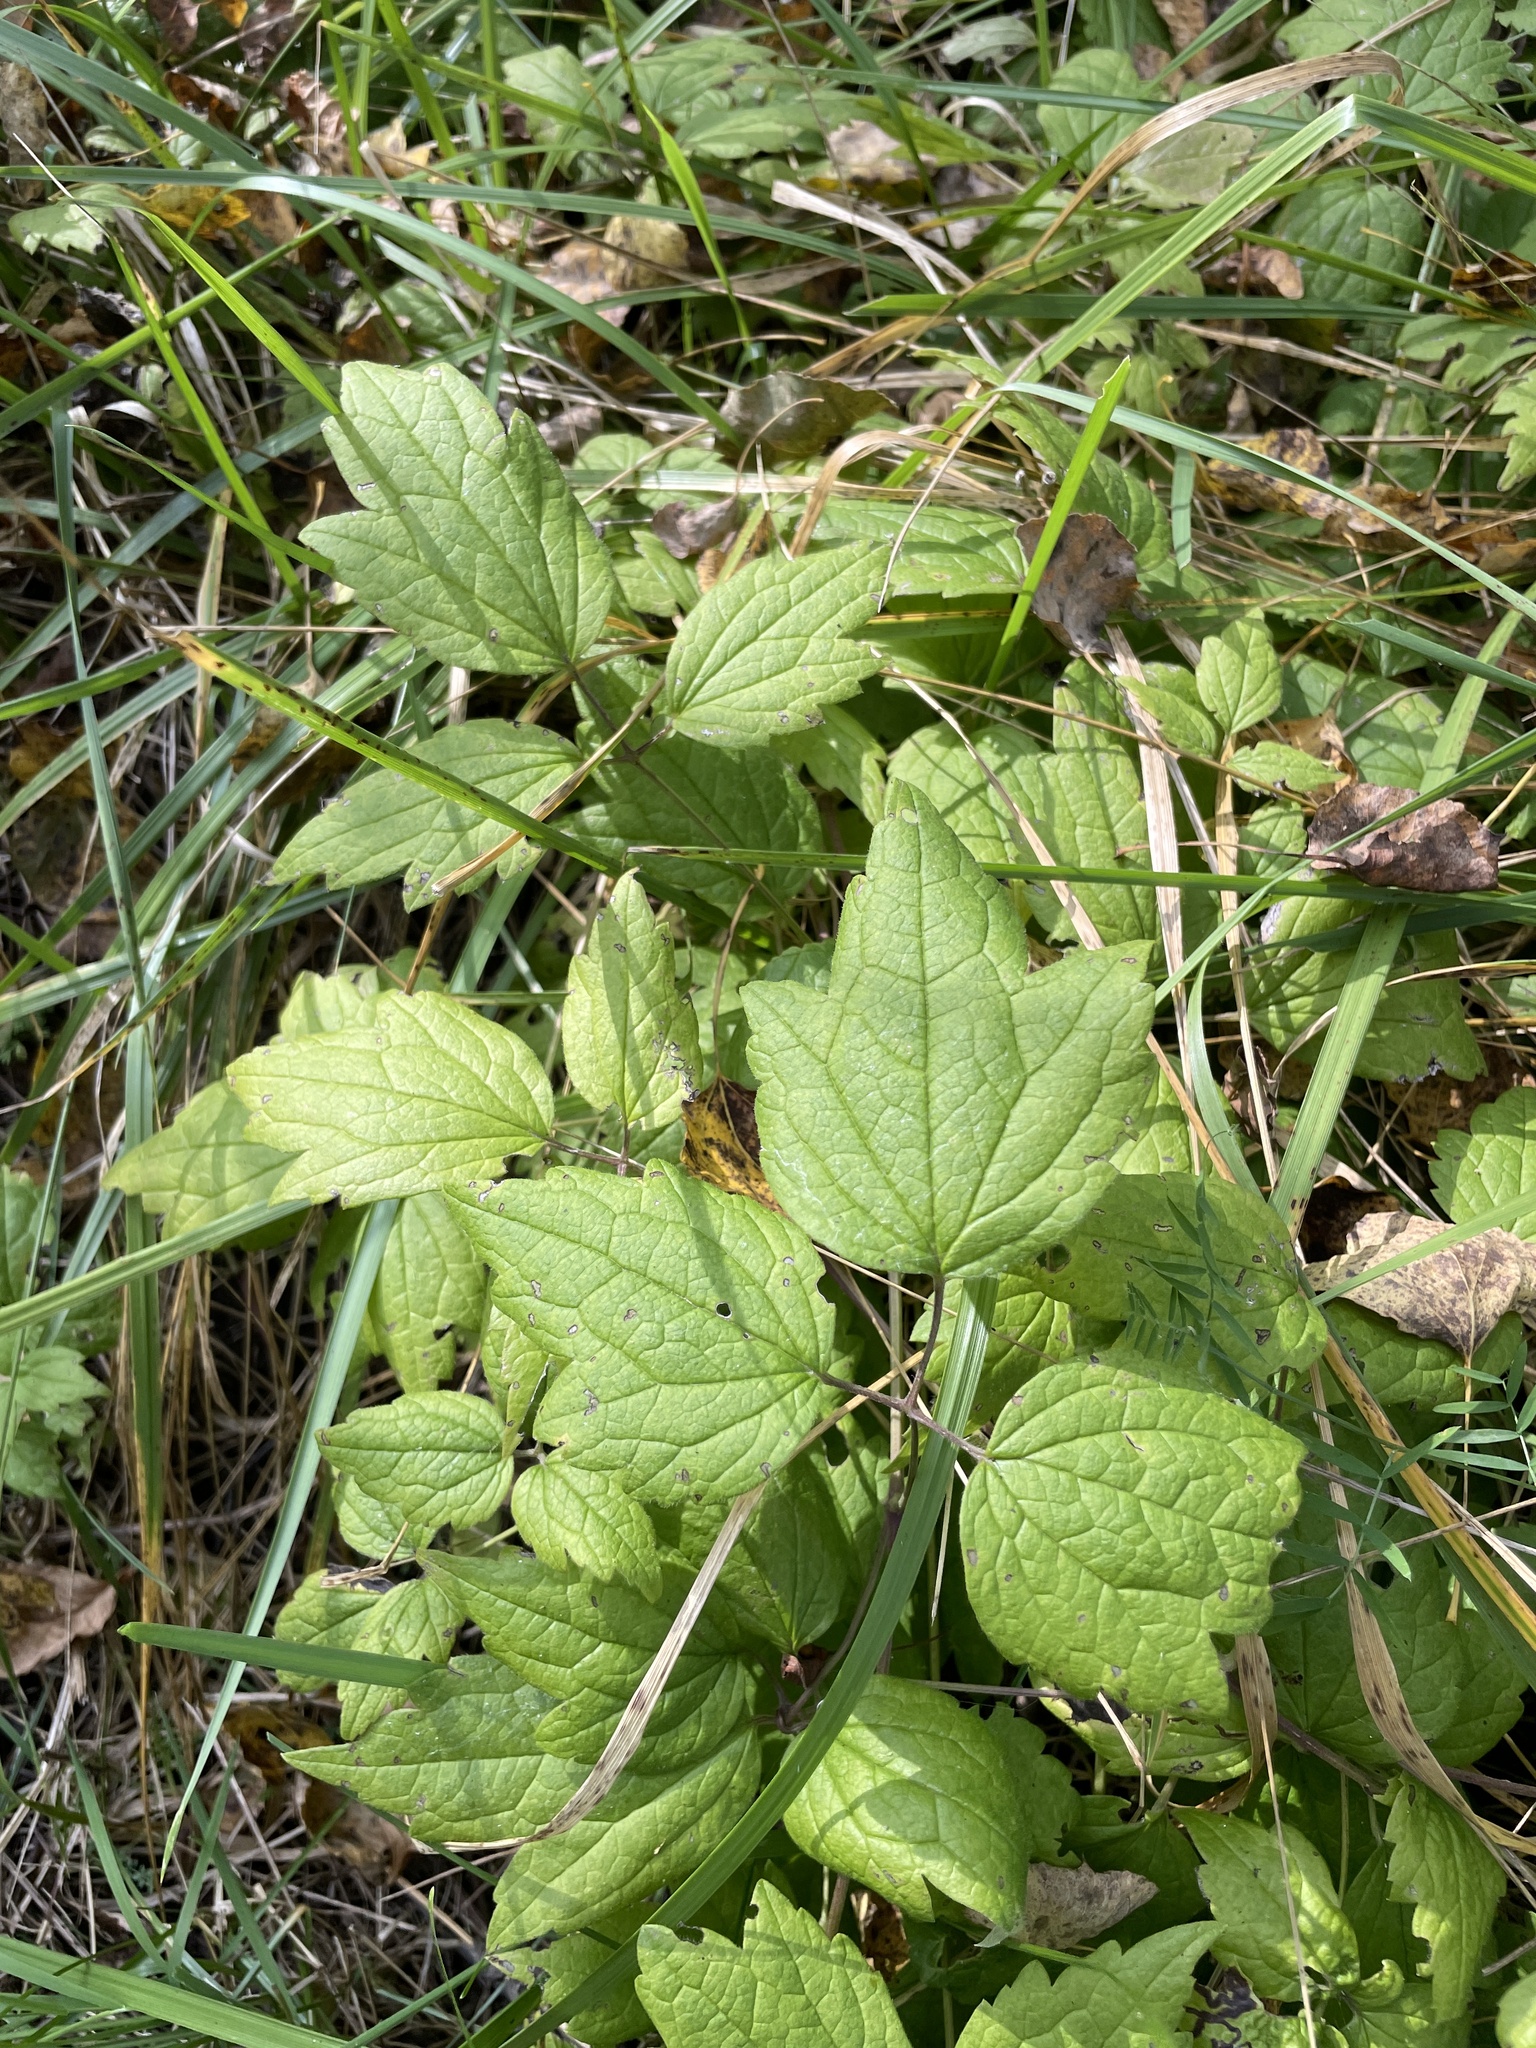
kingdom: Plantae
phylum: Tracheophyta
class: Magnoliopsida
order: Ranunculales
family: Ranunculaceae
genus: Clematis
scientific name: Clematis virginiana
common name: Virgin's-bower
